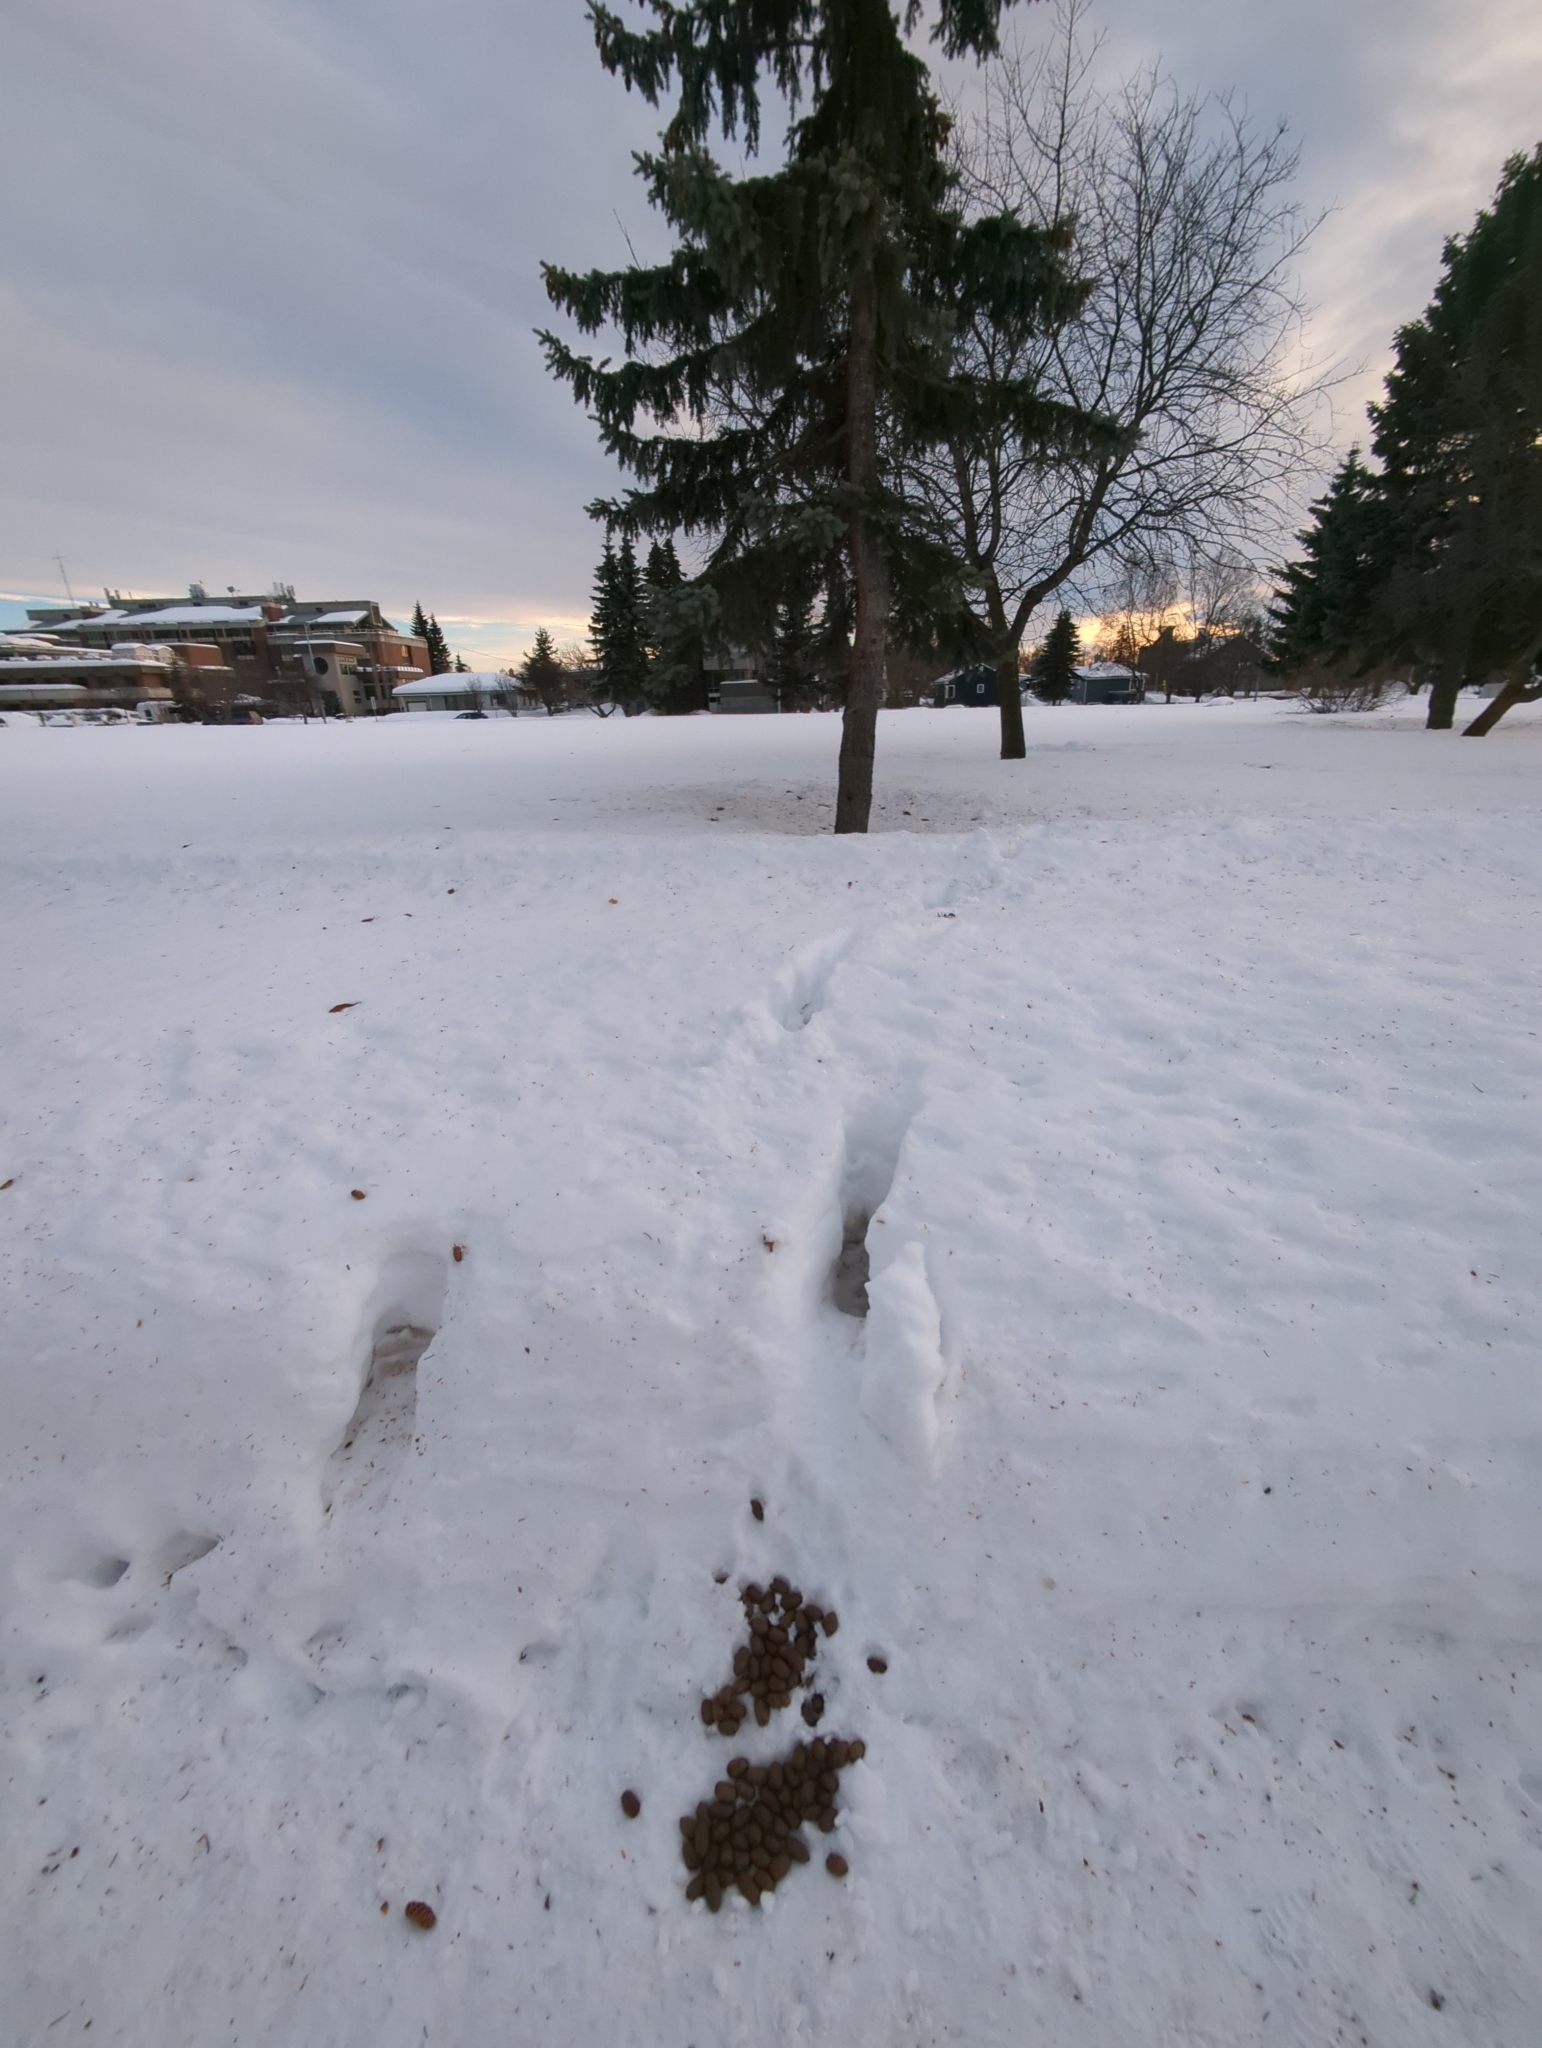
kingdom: Animalia
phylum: Chordata
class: Mammalia
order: Artiodactyla
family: Cervidae
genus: Alces
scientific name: Alces alces
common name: Moose
